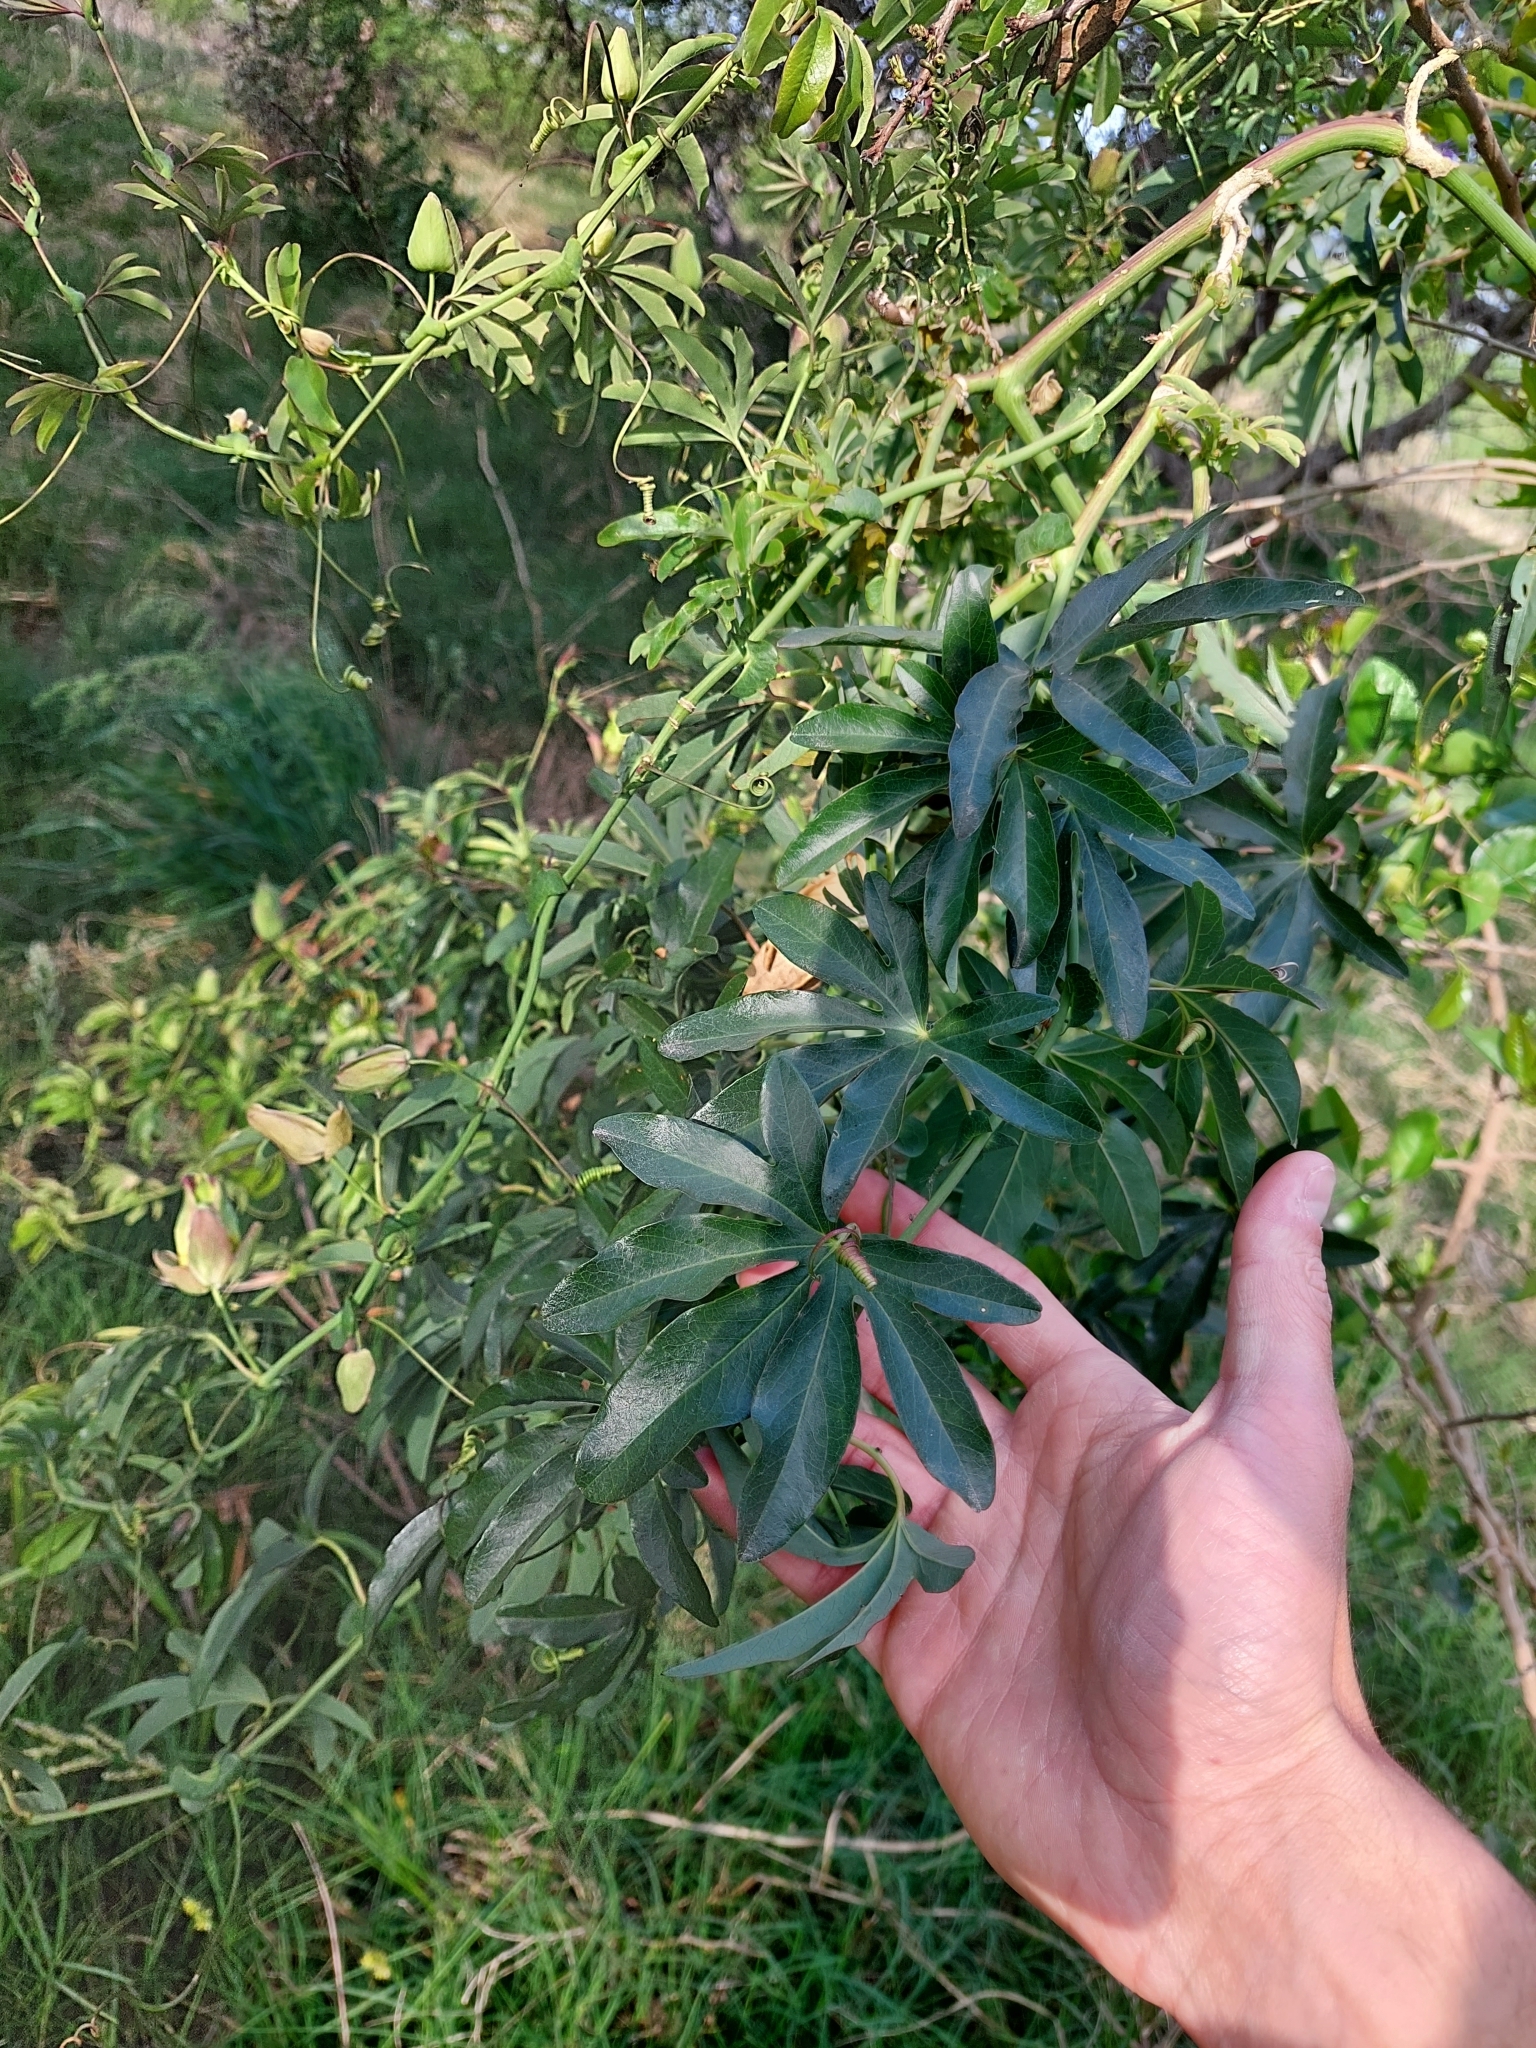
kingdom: Plantae
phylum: Tracheophyta
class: Magnoliopsida
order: Malpighiales
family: Passifloraceae
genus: Passiflora
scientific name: Passiflora caerulea
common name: Blue passionflower
